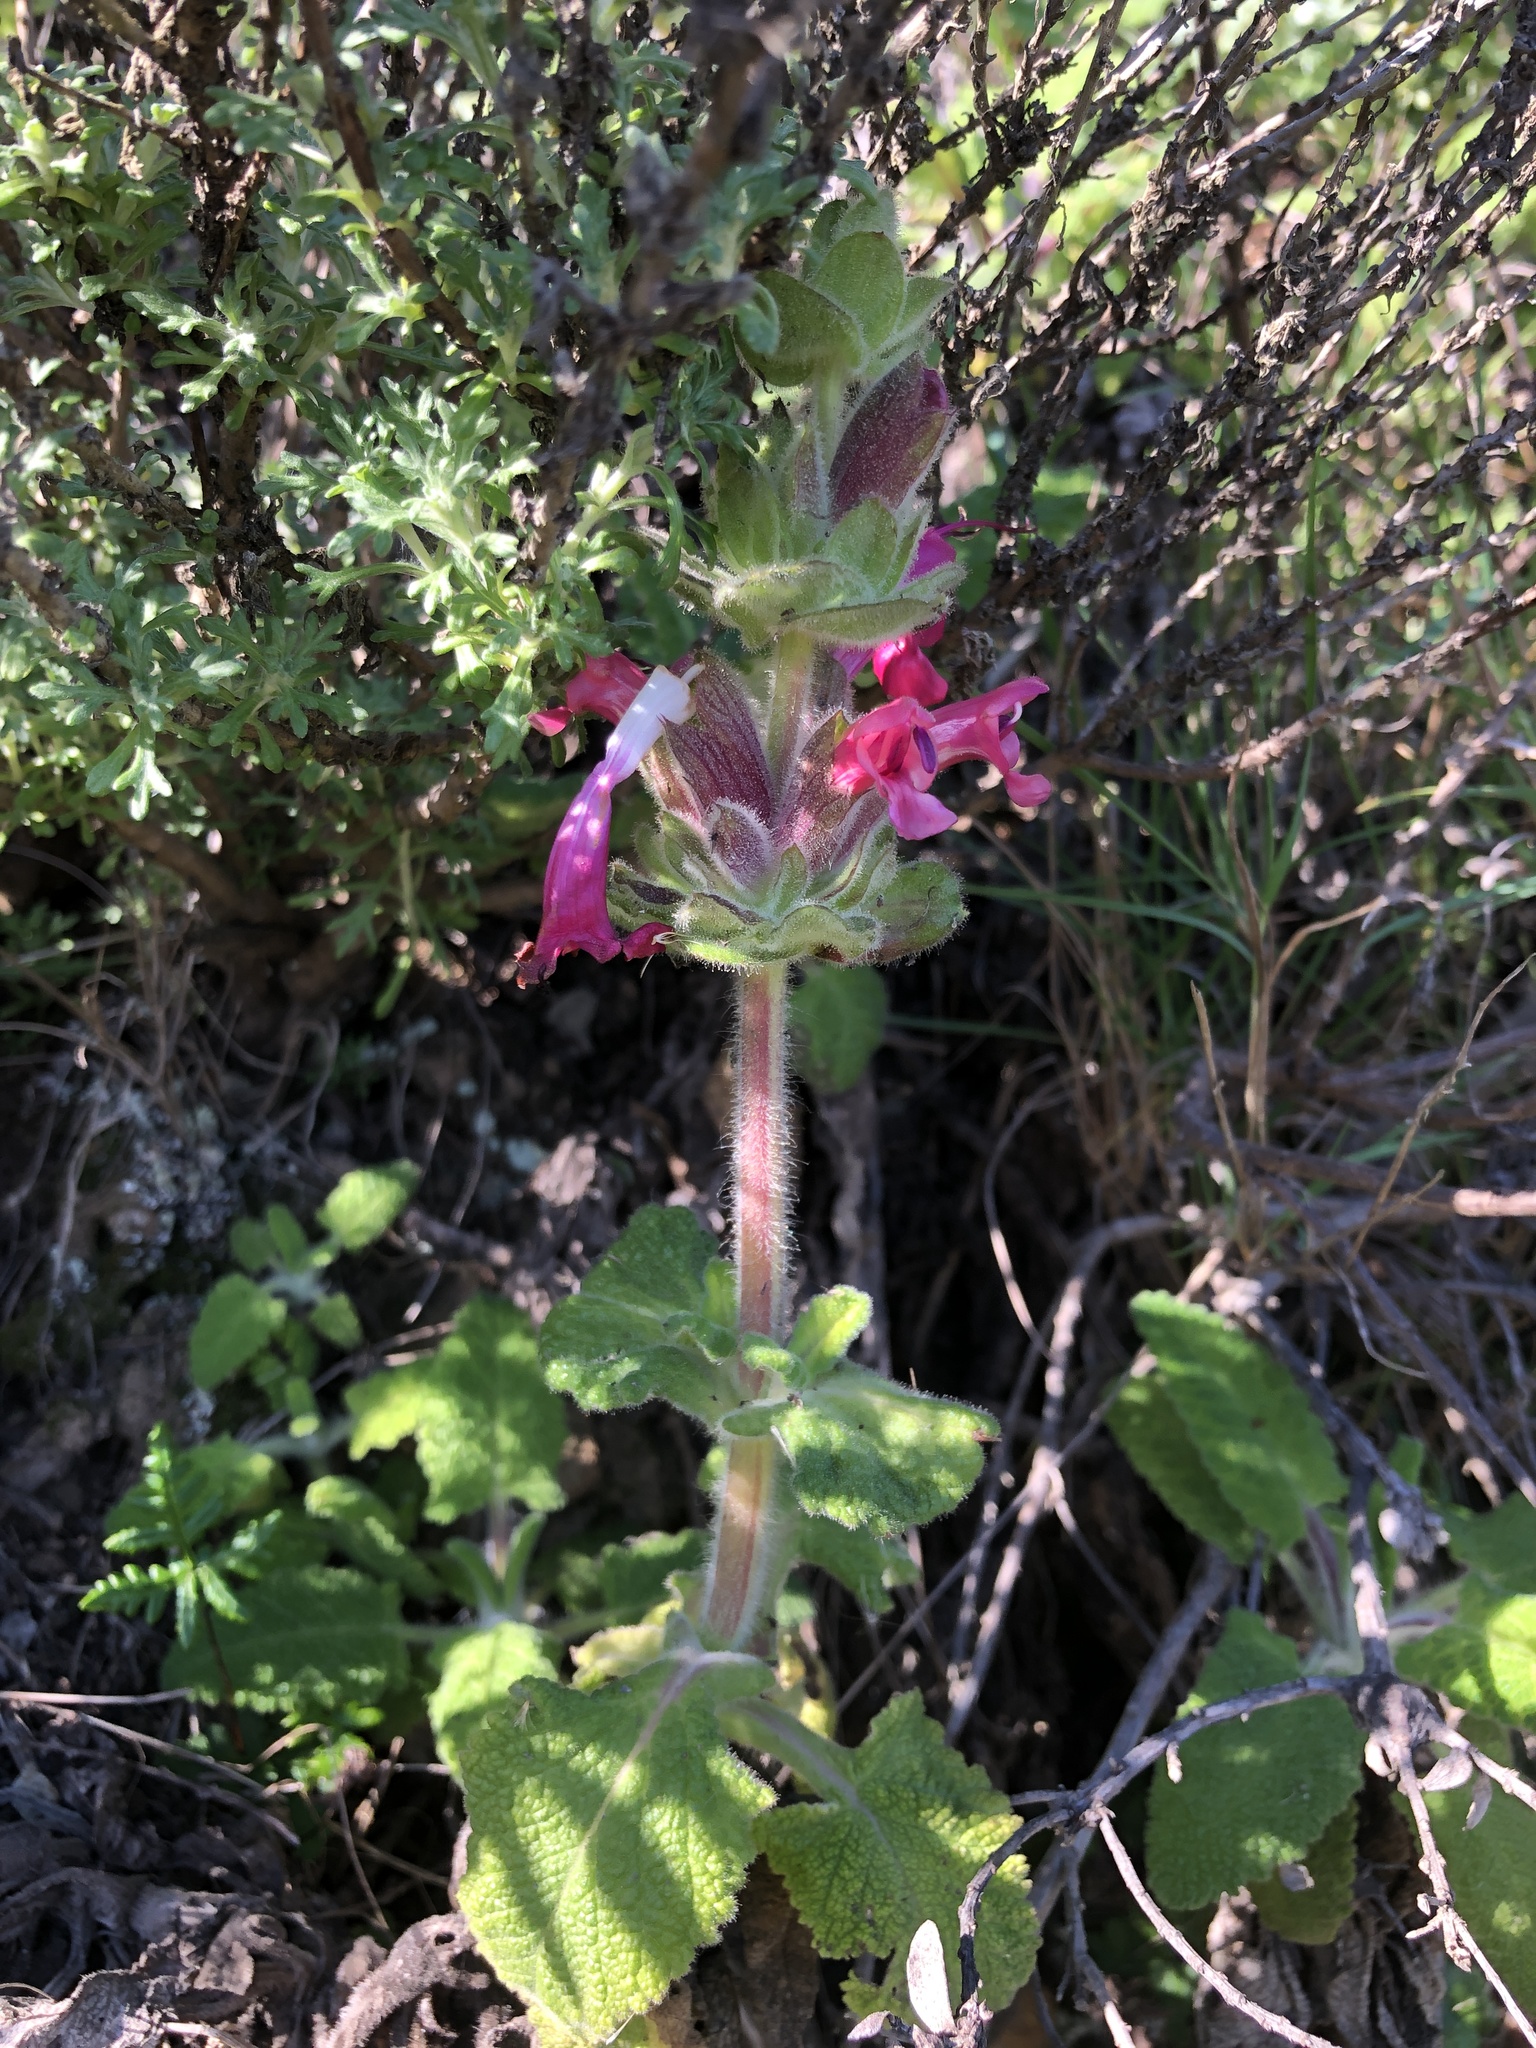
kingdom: Plantae
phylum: Tracheophyta
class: Magnoliopsida
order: Lamiales
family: Lamiaceae
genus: Salvia
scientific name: Salvia spathacea
